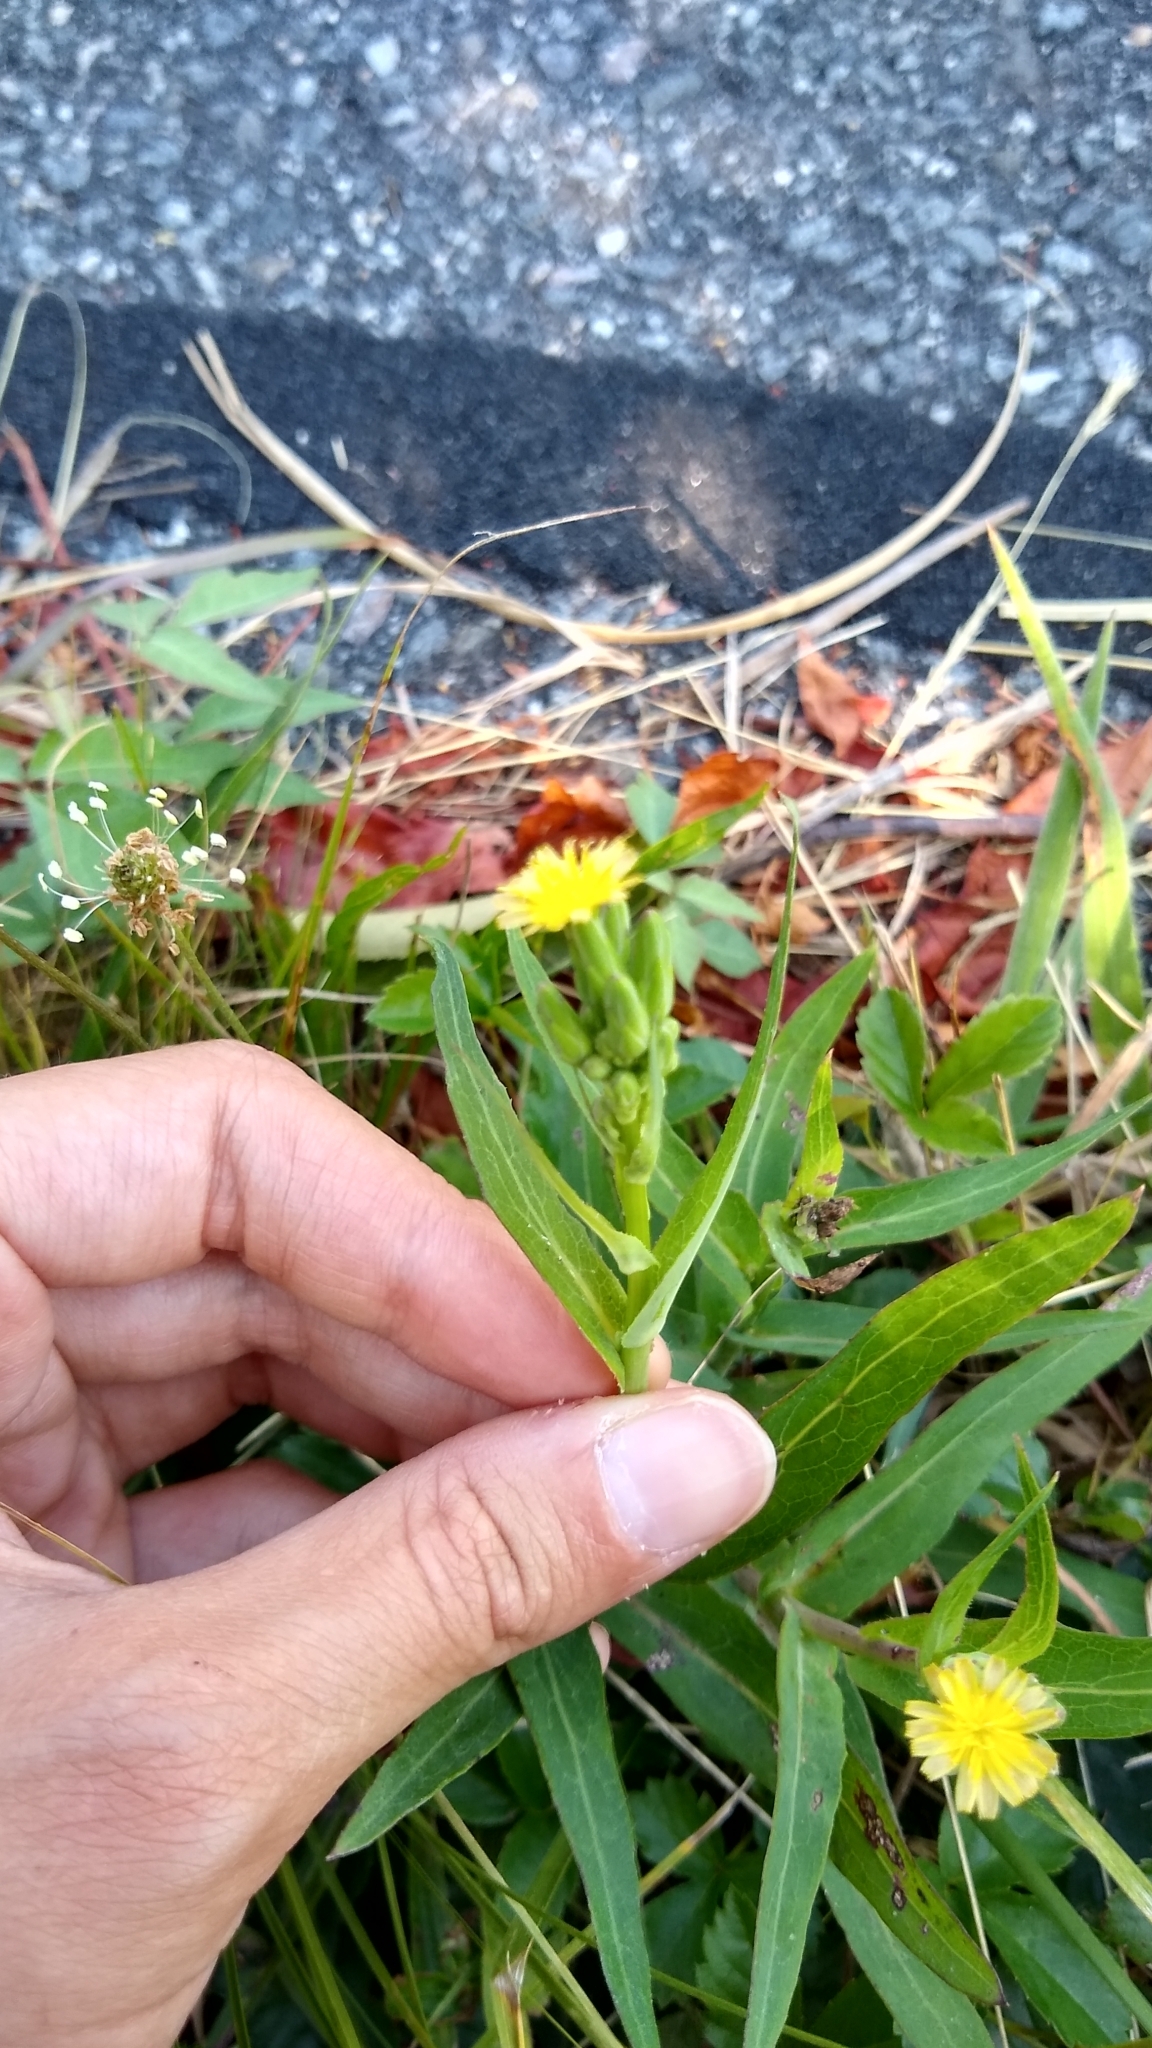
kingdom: Plantae
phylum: Tracheophyta
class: Magnoliopsida
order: Asterales
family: Asteraceae
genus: Lactuca
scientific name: Lactuca canadensis
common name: Canada lettuce
